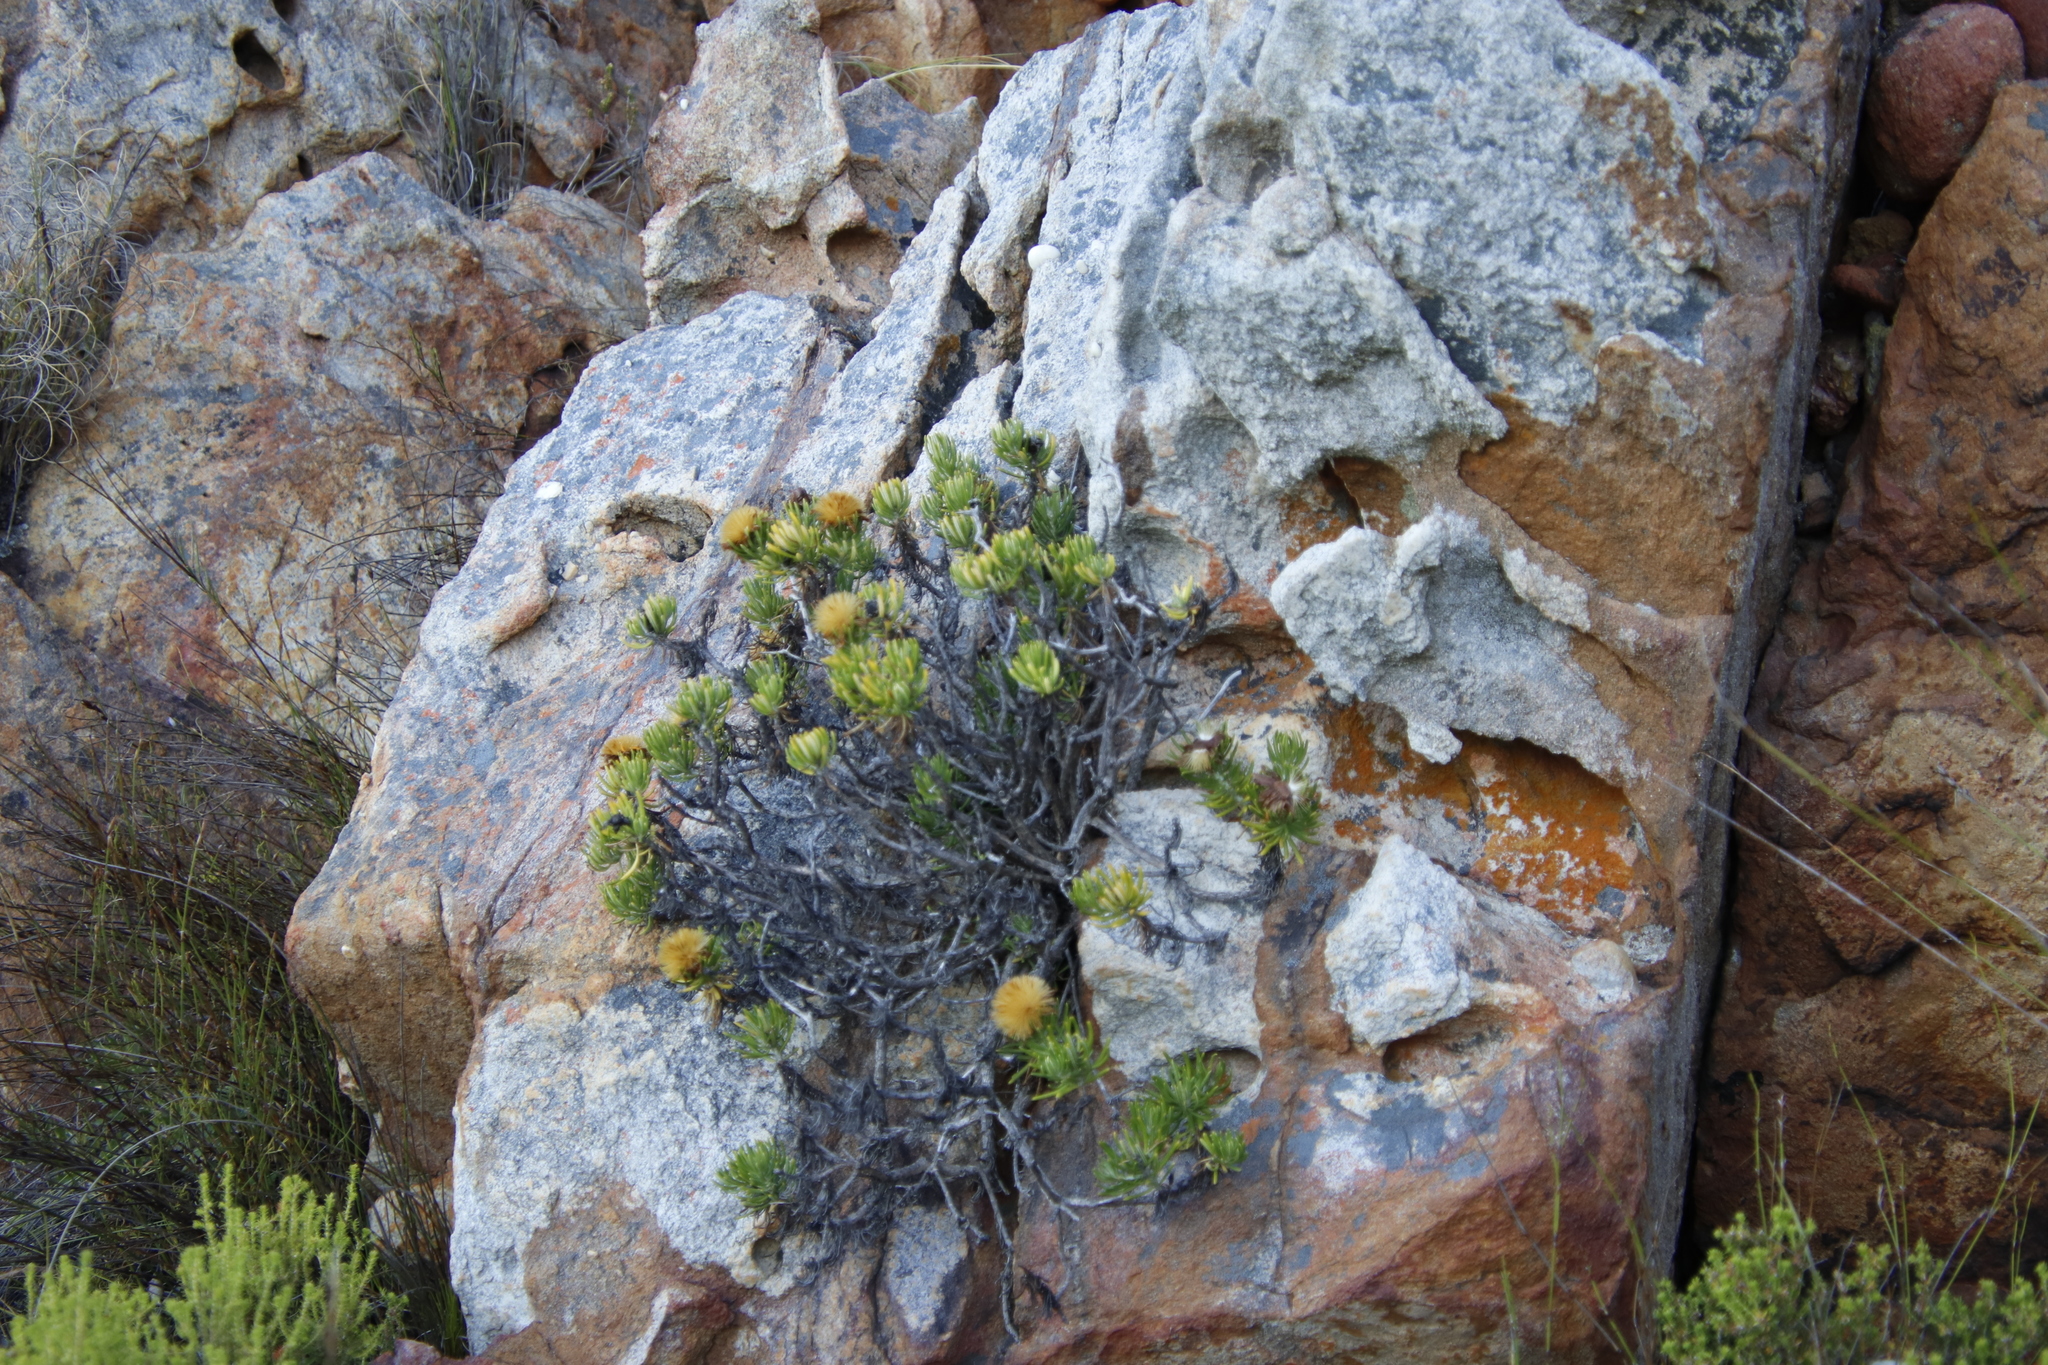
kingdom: Plantae
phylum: Tracheophyta
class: Magnoliopsida
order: Asterales
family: Asteraceae
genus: Heterolepis
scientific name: Heterolepis aliena
